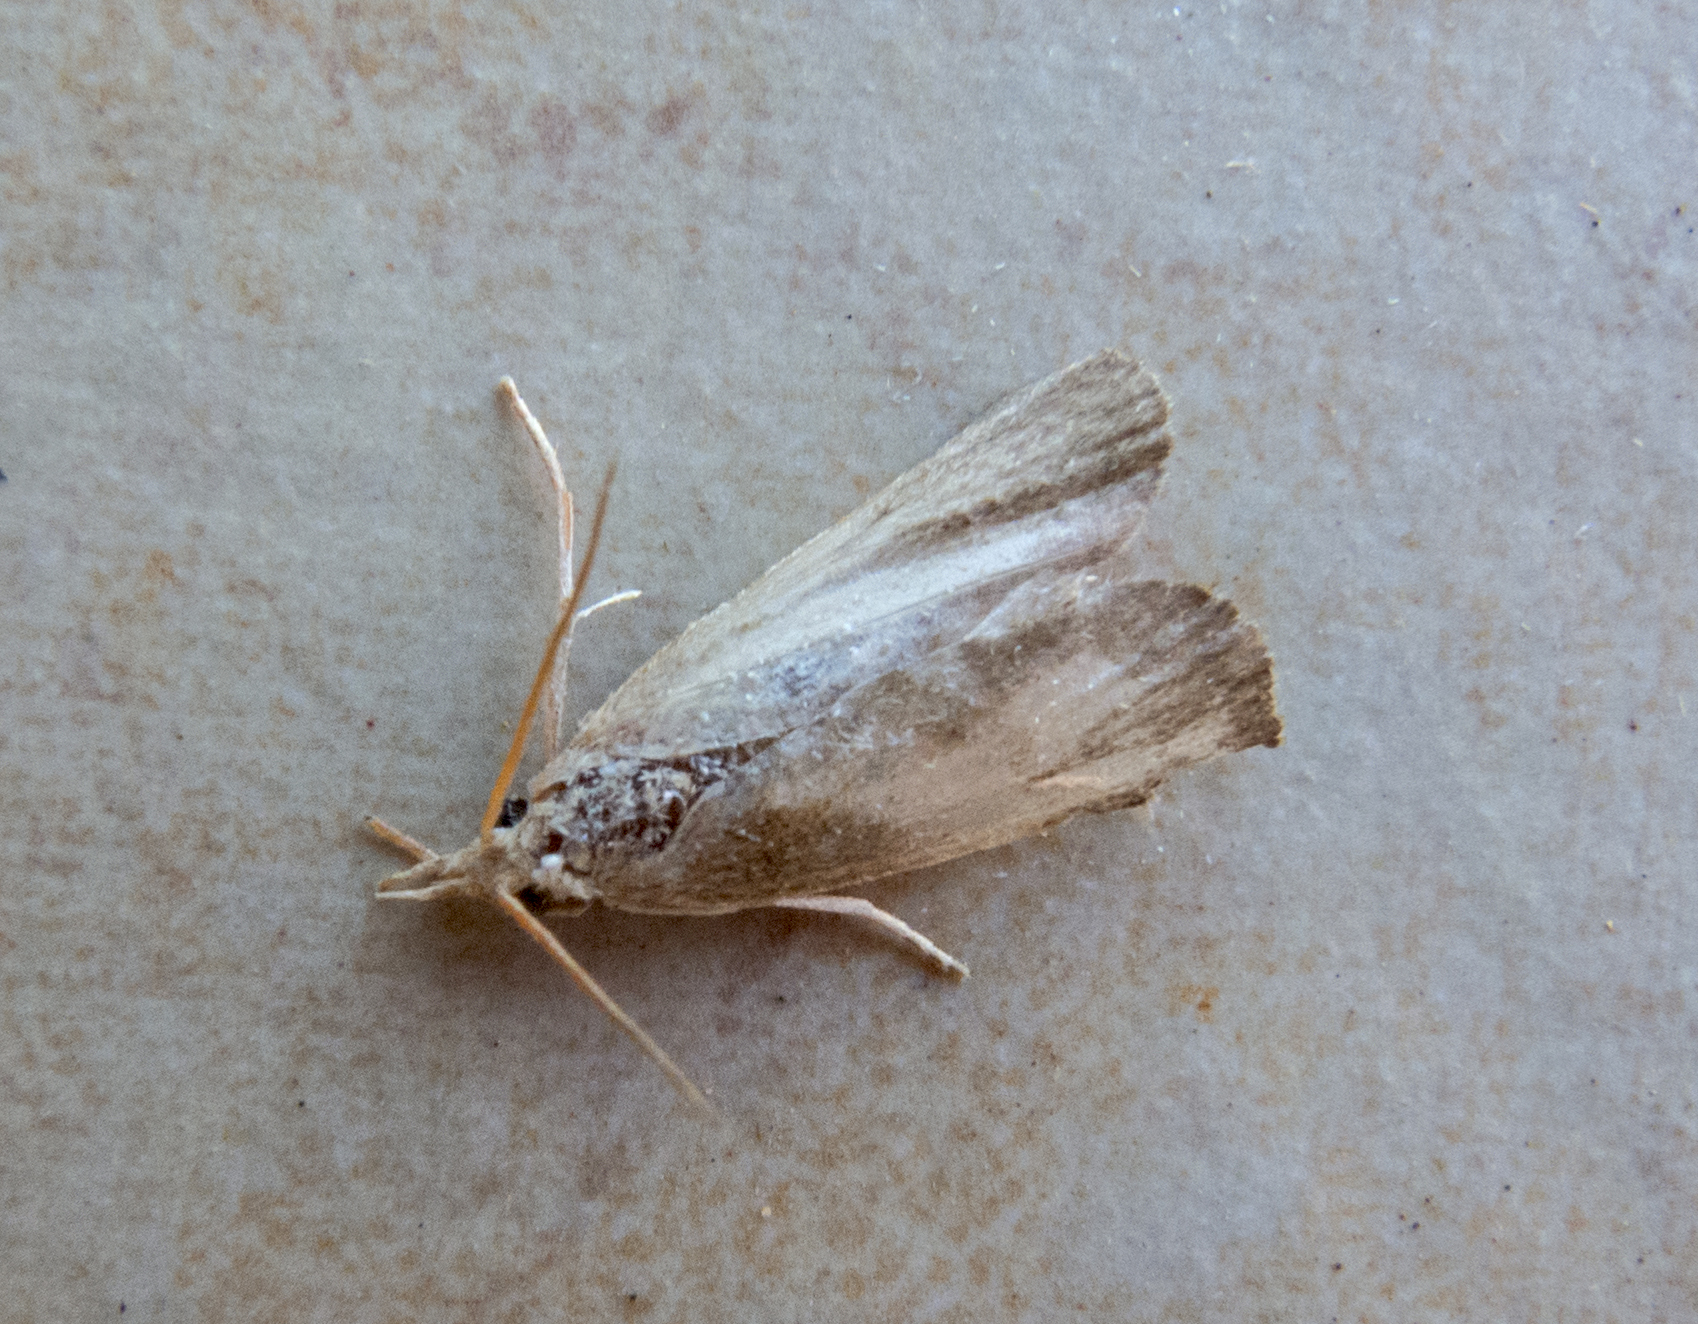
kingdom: Animalia
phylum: Arthropoda
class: Insecta
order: Lepidoptera
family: Crambidae
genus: Calamotropha
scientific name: Calamotropha paludella
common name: Bulrush veneer
